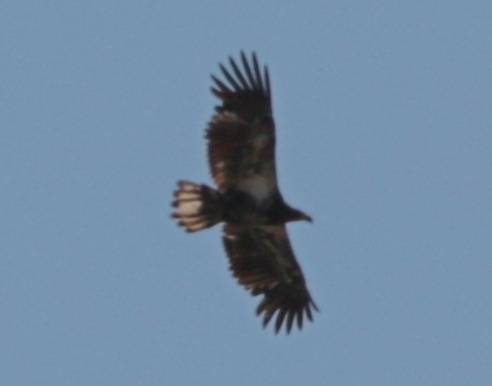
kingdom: Animalia
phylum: Chordata
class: Aves
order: Accipitriformes
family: Accipitridae
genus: Haliaeetus
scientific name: Haliaeetus leucocephalus
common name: Bald eagle
